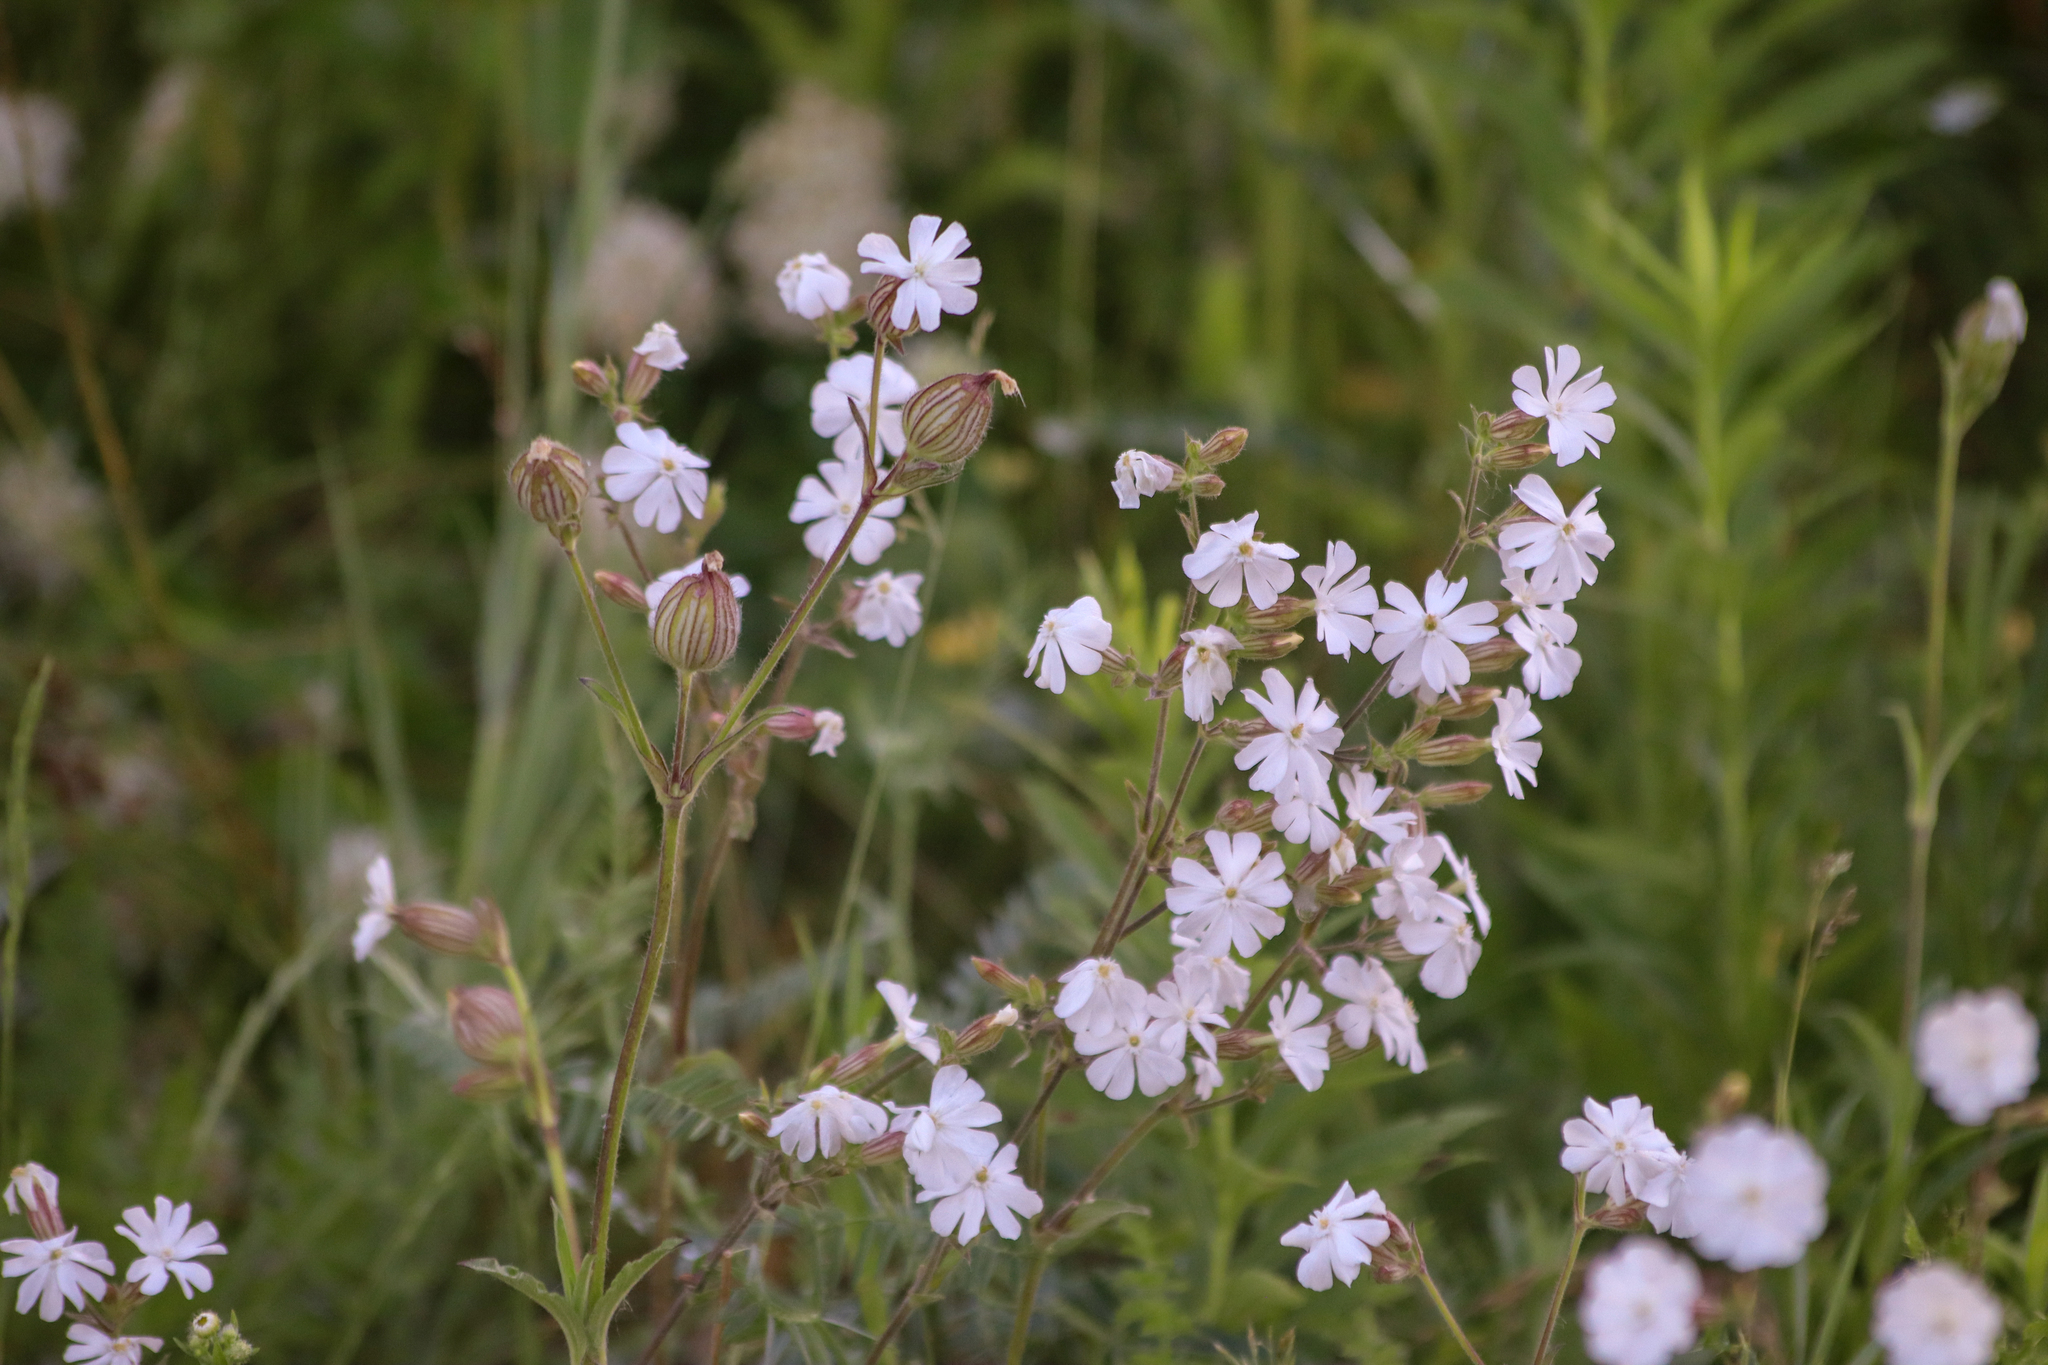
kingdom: Plantae
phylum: Tracheophyta
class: Magnoliopsida
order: Caryophyllales
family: Caryophyllaceae
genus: Silene
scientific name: Silene latifolia
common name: White campion
